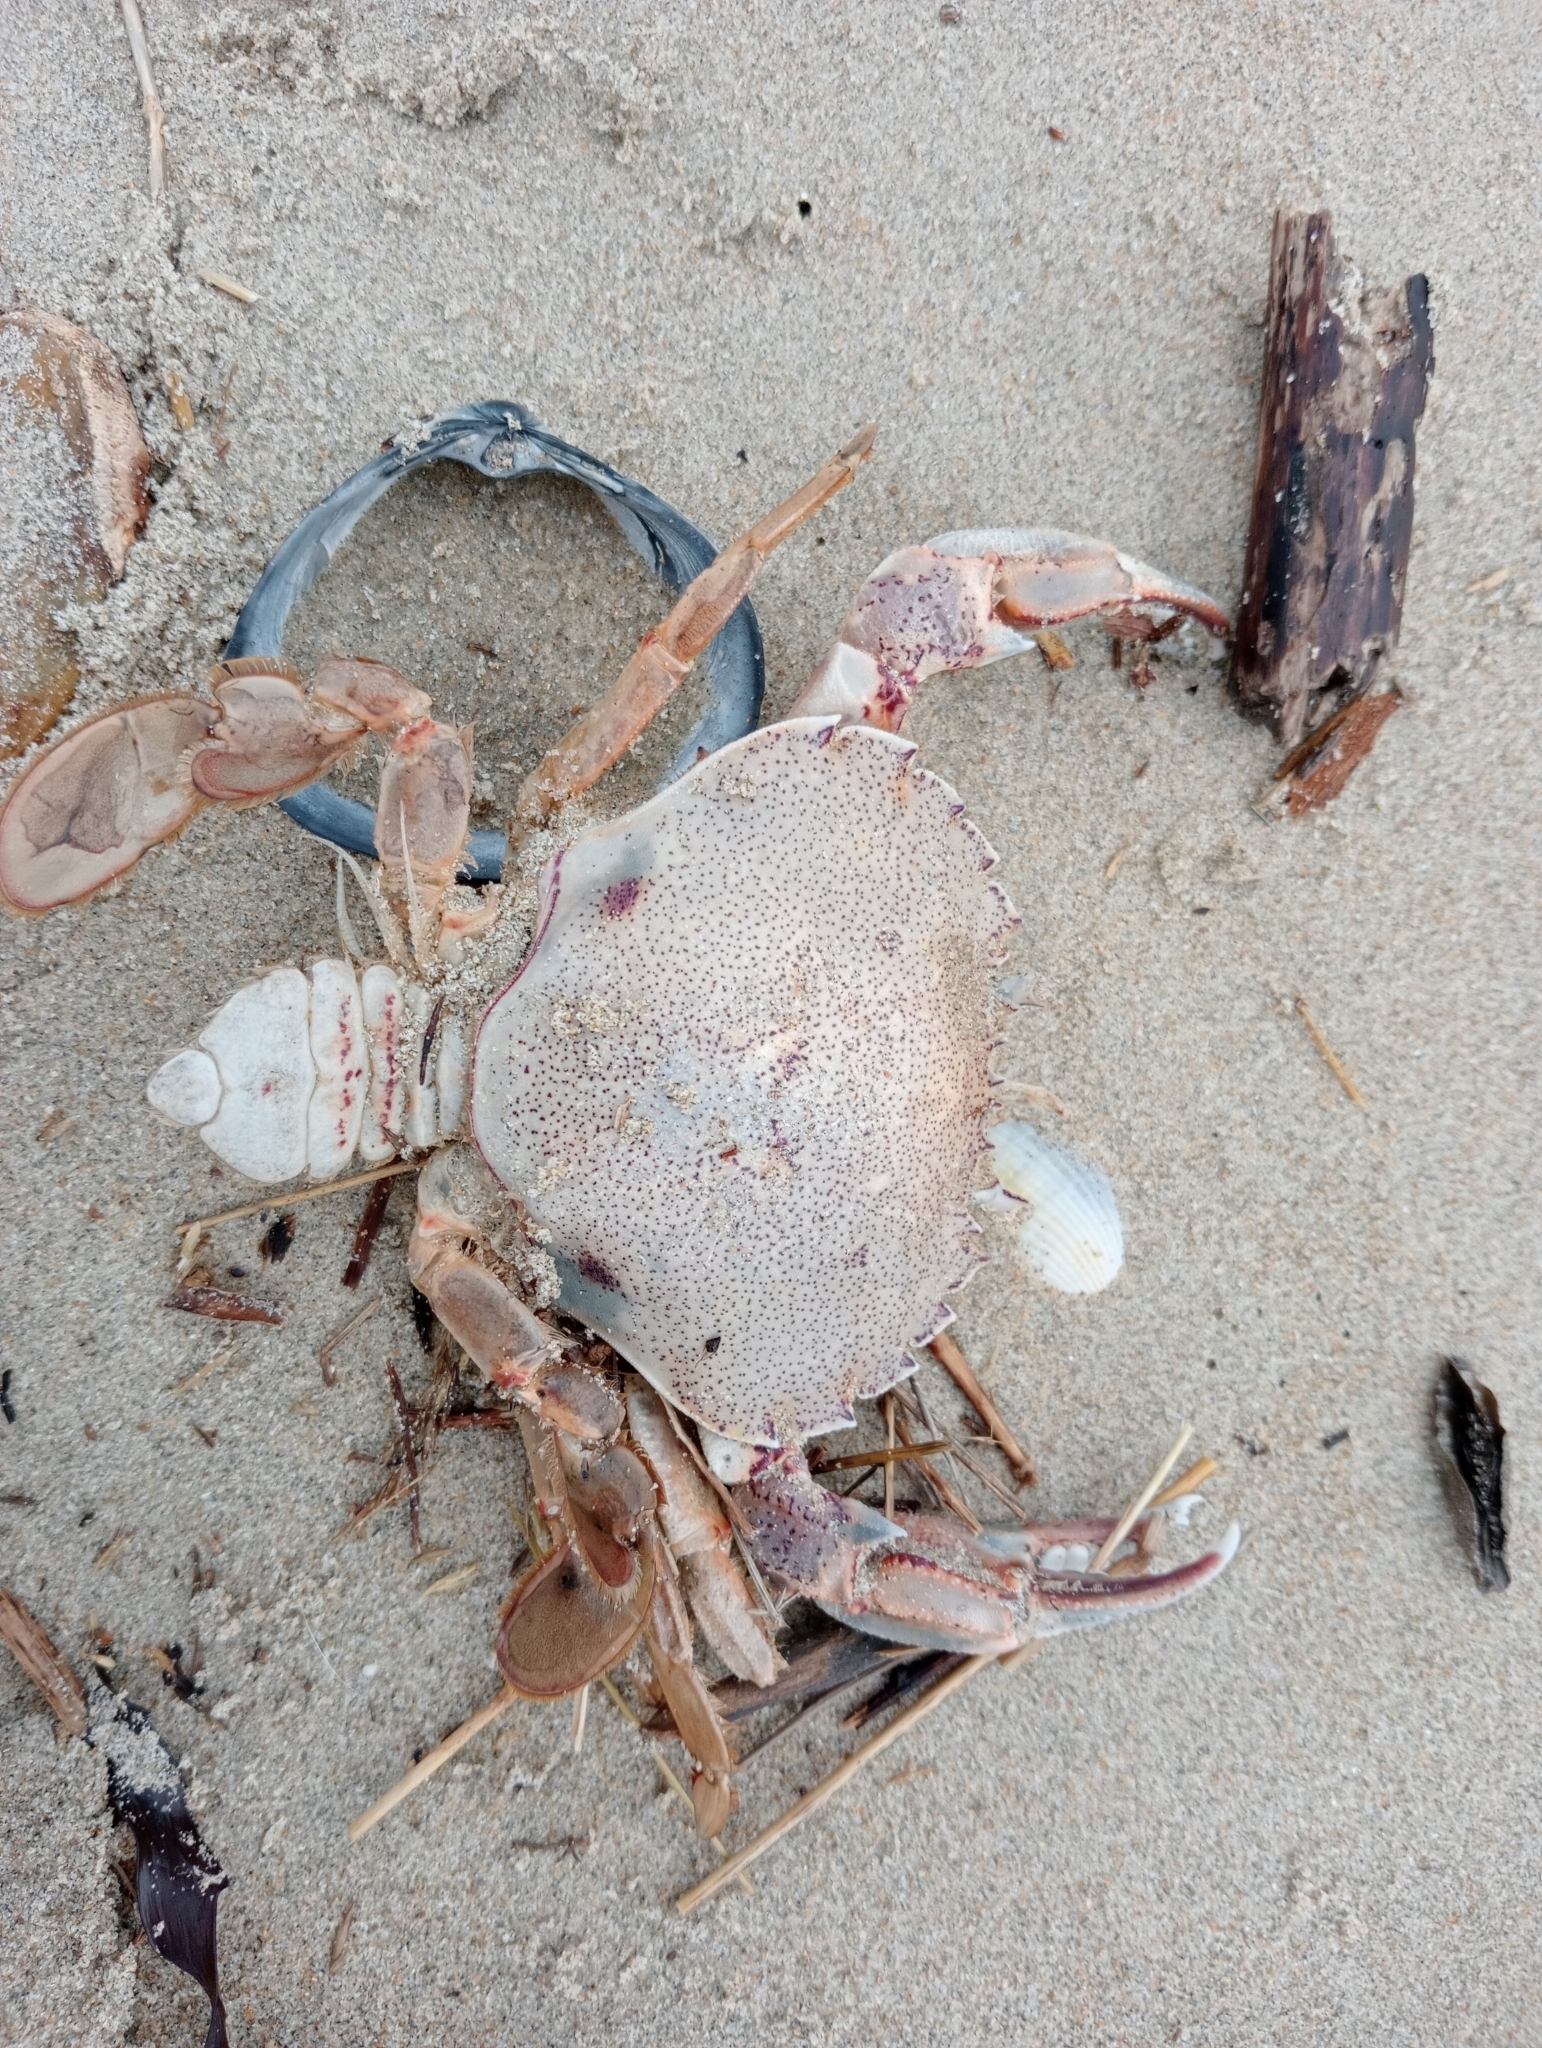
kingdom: Animalia
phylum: Arthropoda
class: Malacostraca
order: Decapoda
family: Ovalipidae
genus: Ovalipes
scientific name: Ovalipes catharus
